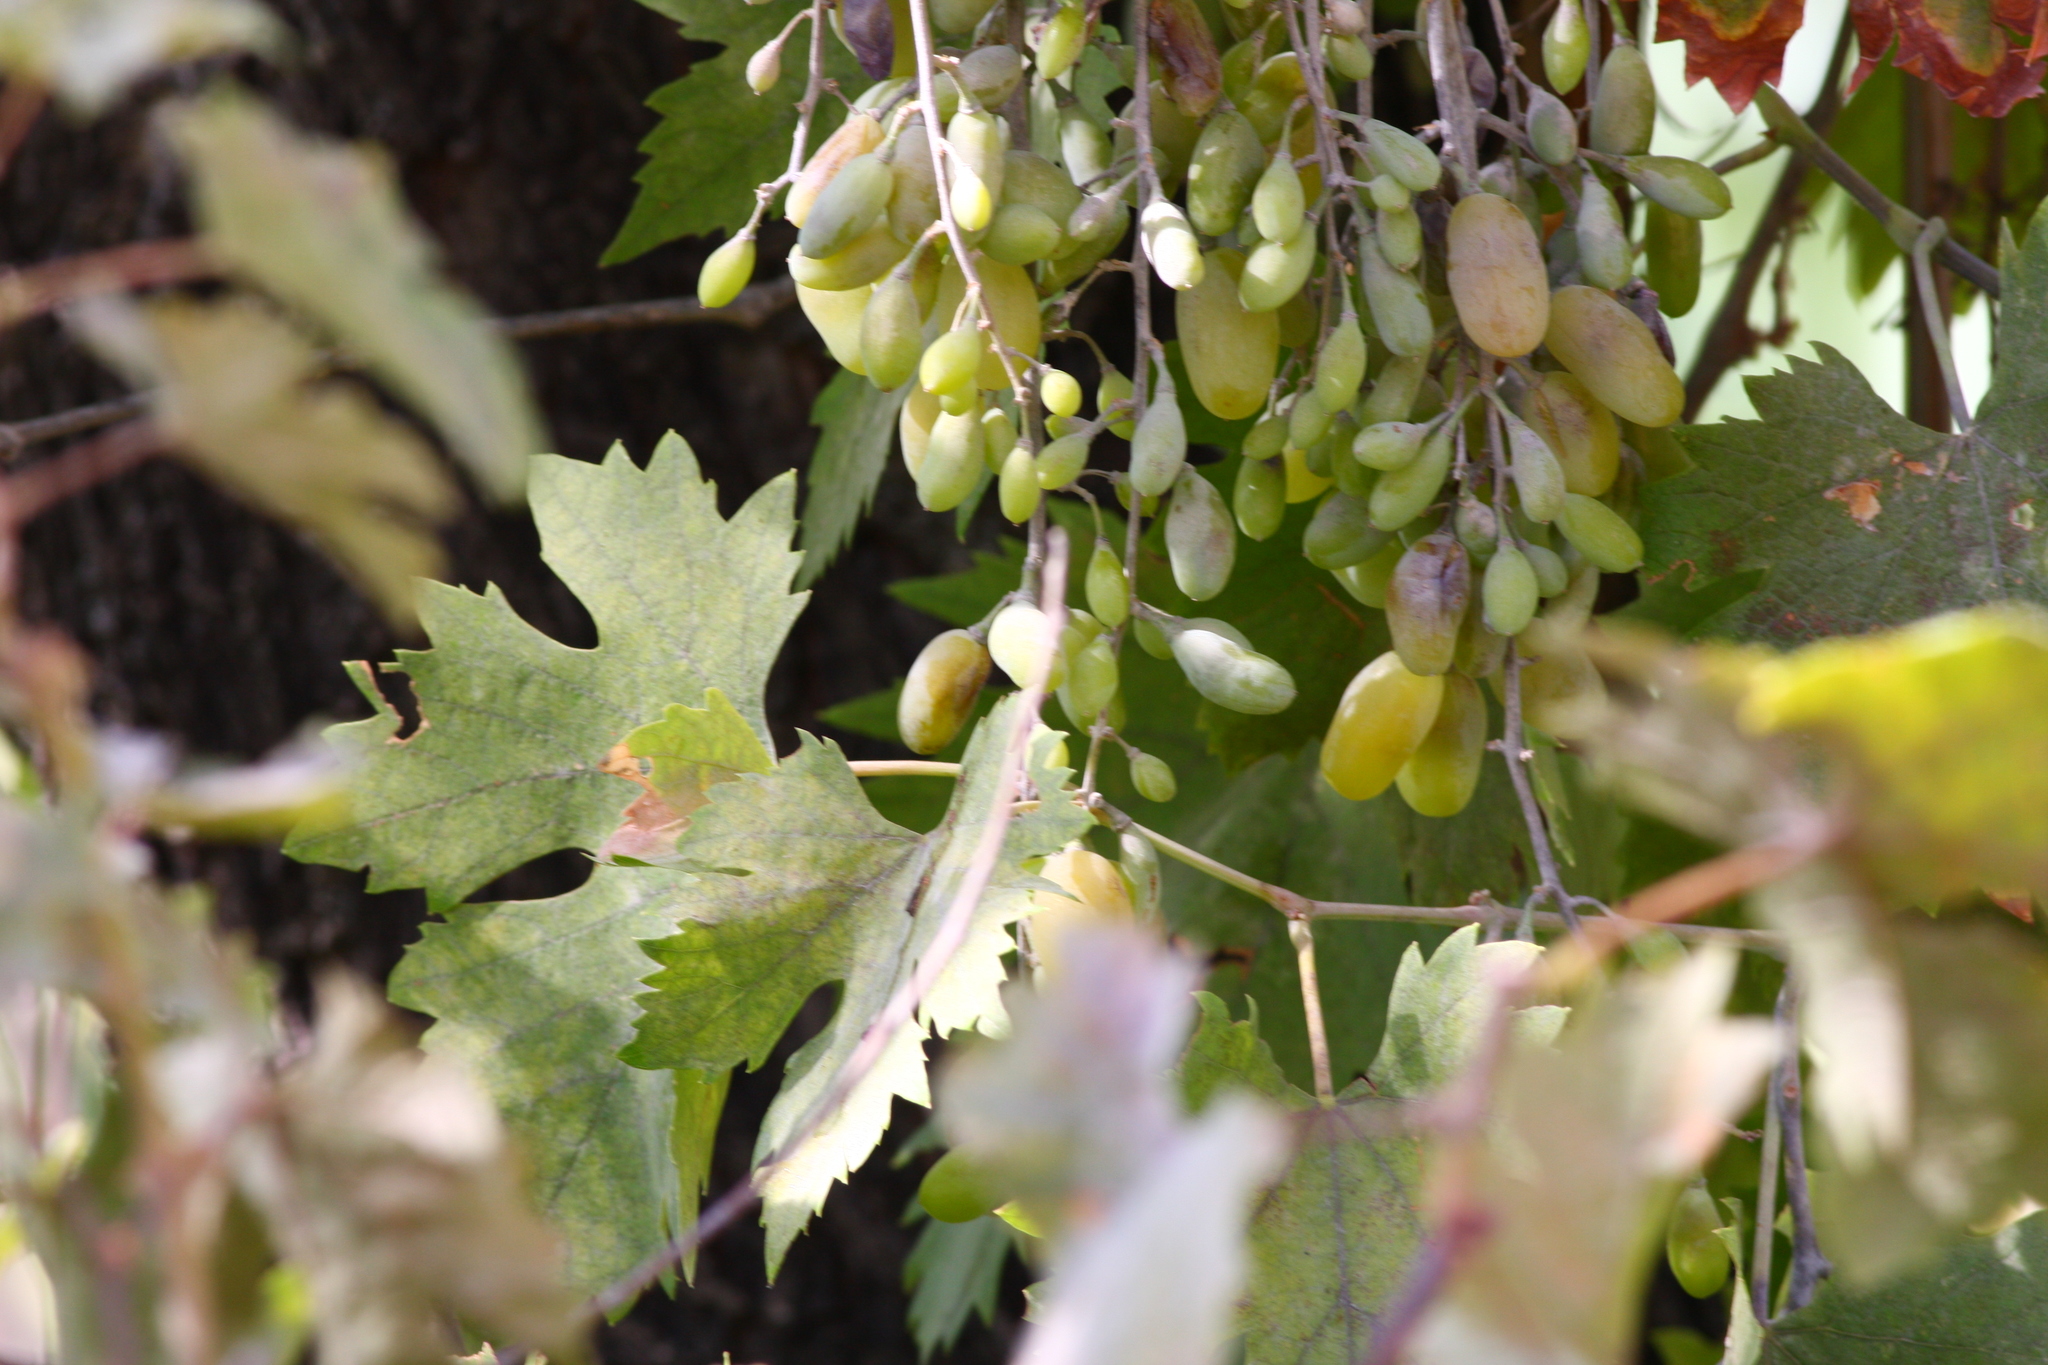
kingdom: Plantae
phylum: Tracheophyta
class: Magnoliopsida
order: Vitales
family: Vitaceae
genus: Vitis
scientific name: Vitis vinifera
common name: Grape-vine
